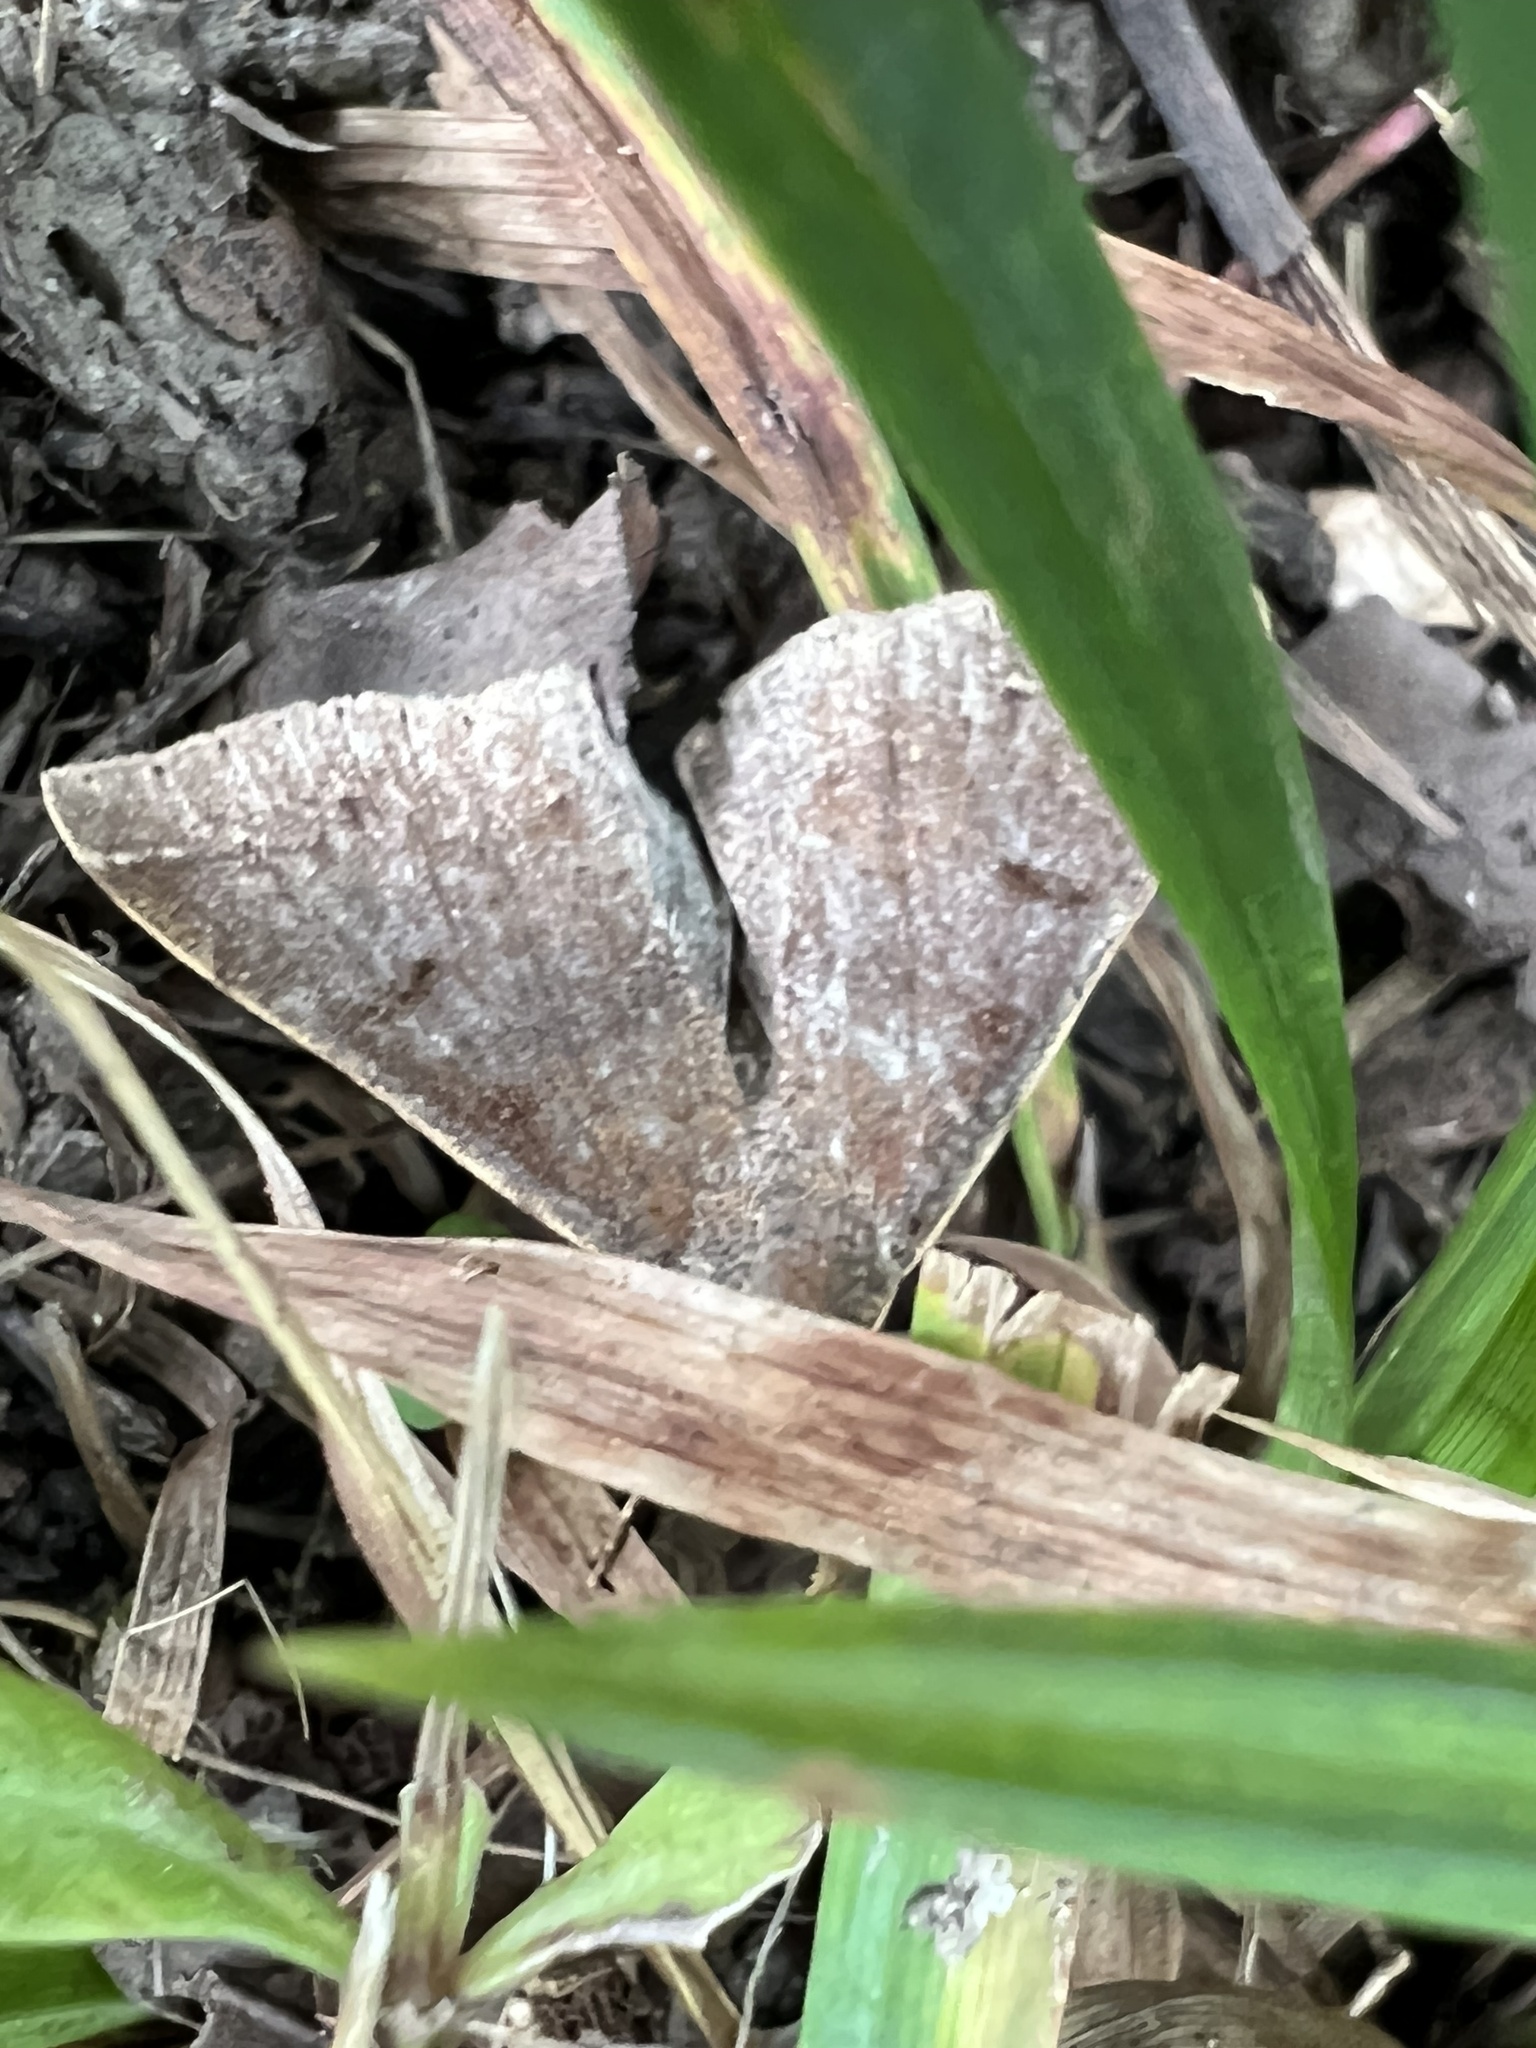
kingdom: Animalia
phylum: Arthropoda
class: Insecta
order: Lepidoptera
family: Erebidae
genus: Renia
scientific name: Renia discoloralis
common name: Discolored renia moth
